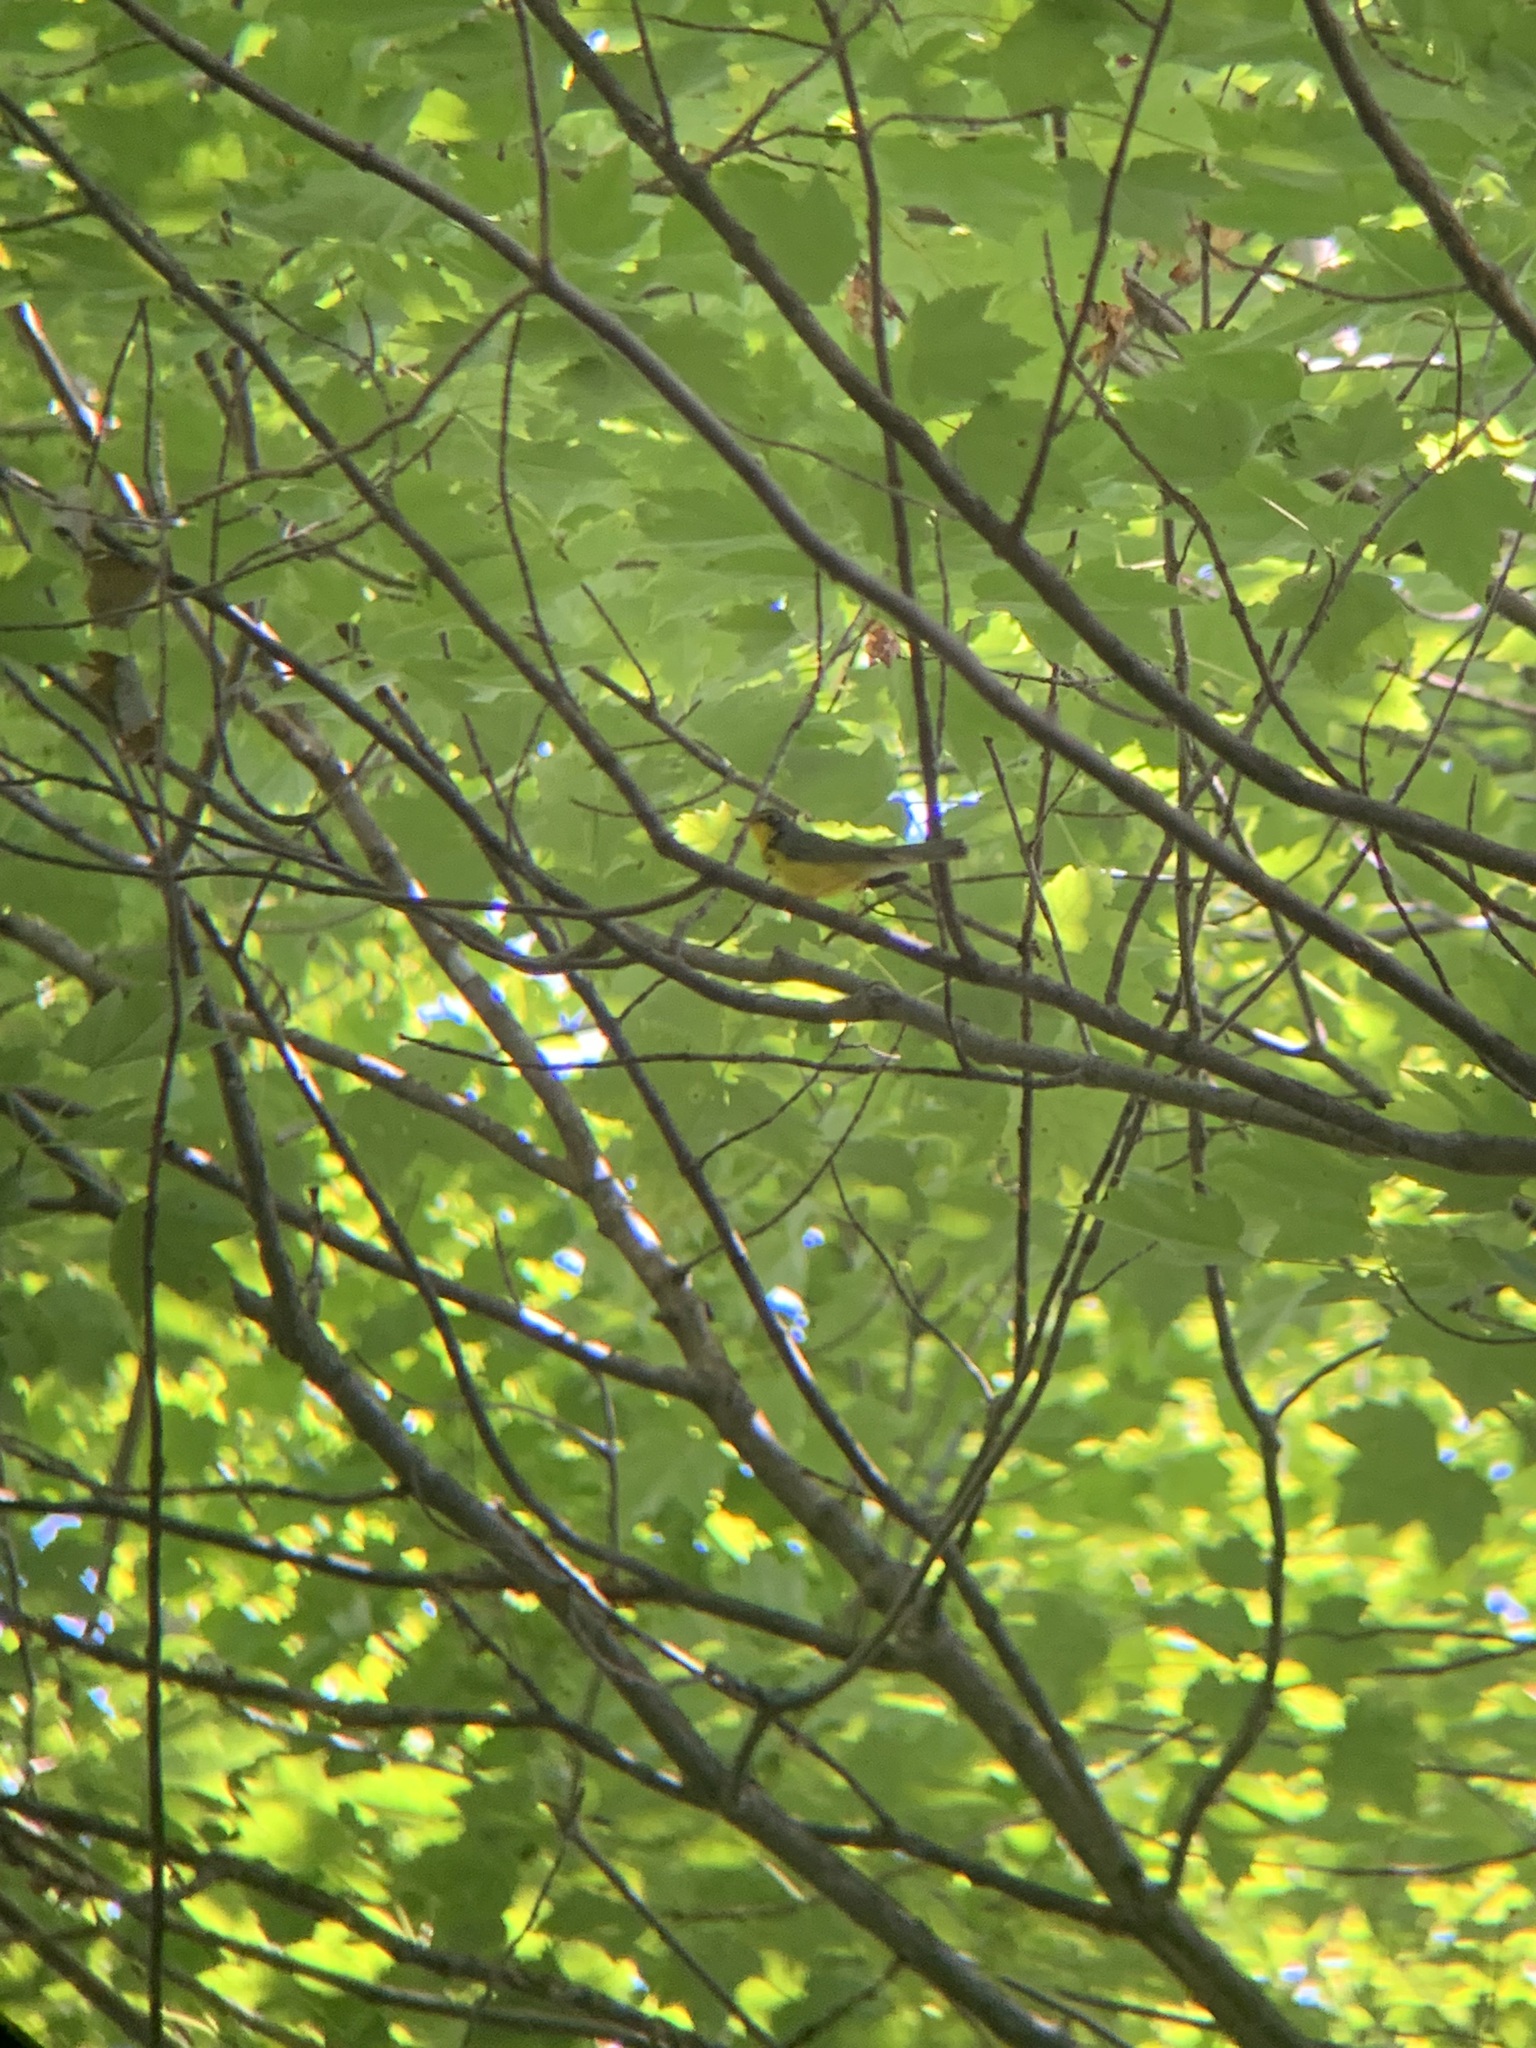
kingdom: Animalia
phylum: Chordata
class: Aves
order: Passeriformes
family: Parulidae
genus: Cardellina
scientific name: Cardellina canadensis
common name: Canada warbler
